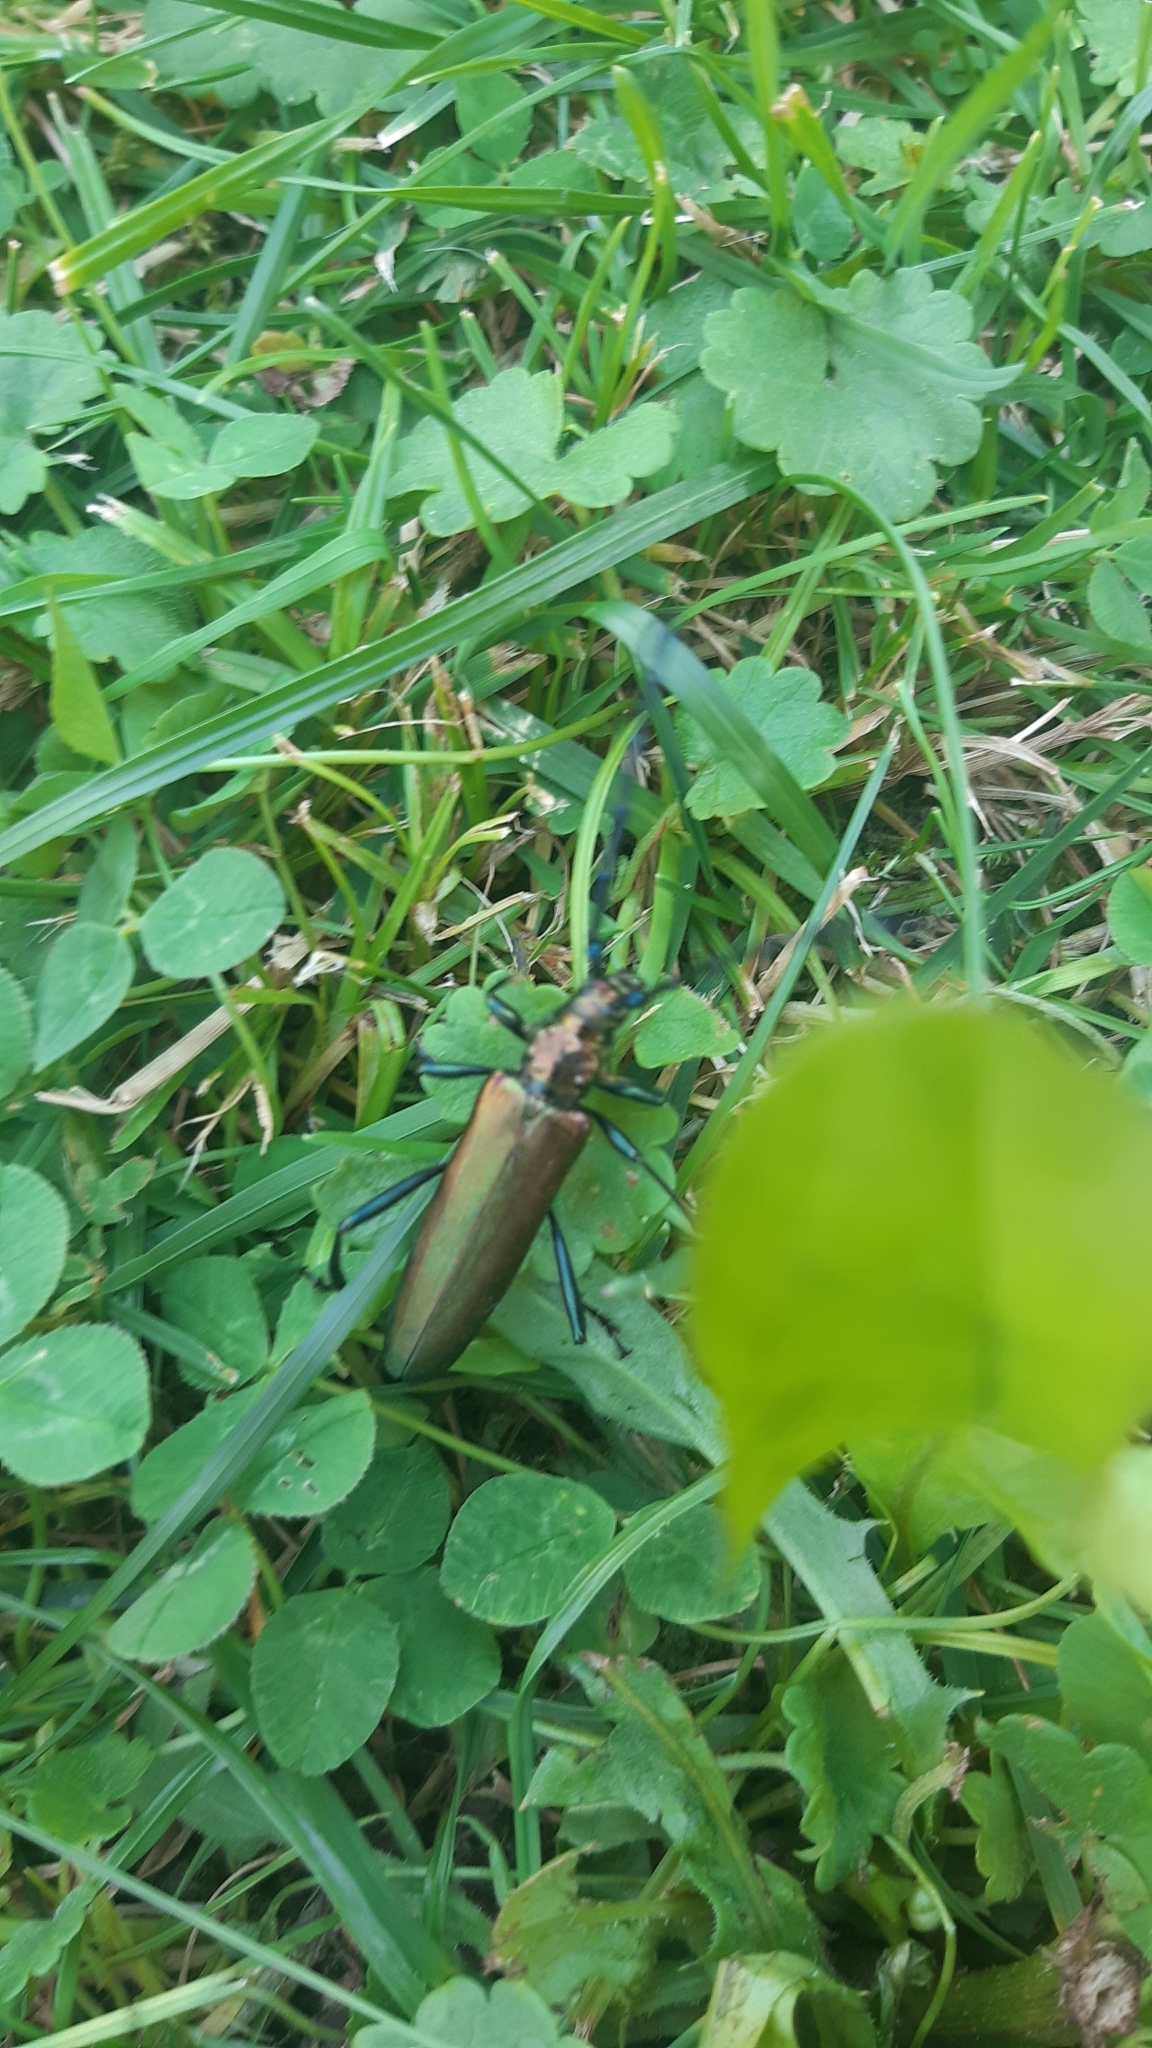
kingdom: Animalia
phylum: Arthropoda
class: Insecta
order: Coleoptera
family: Cerambycidae
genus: Aromia
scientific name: Aromia moschata
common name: Musk beetle
